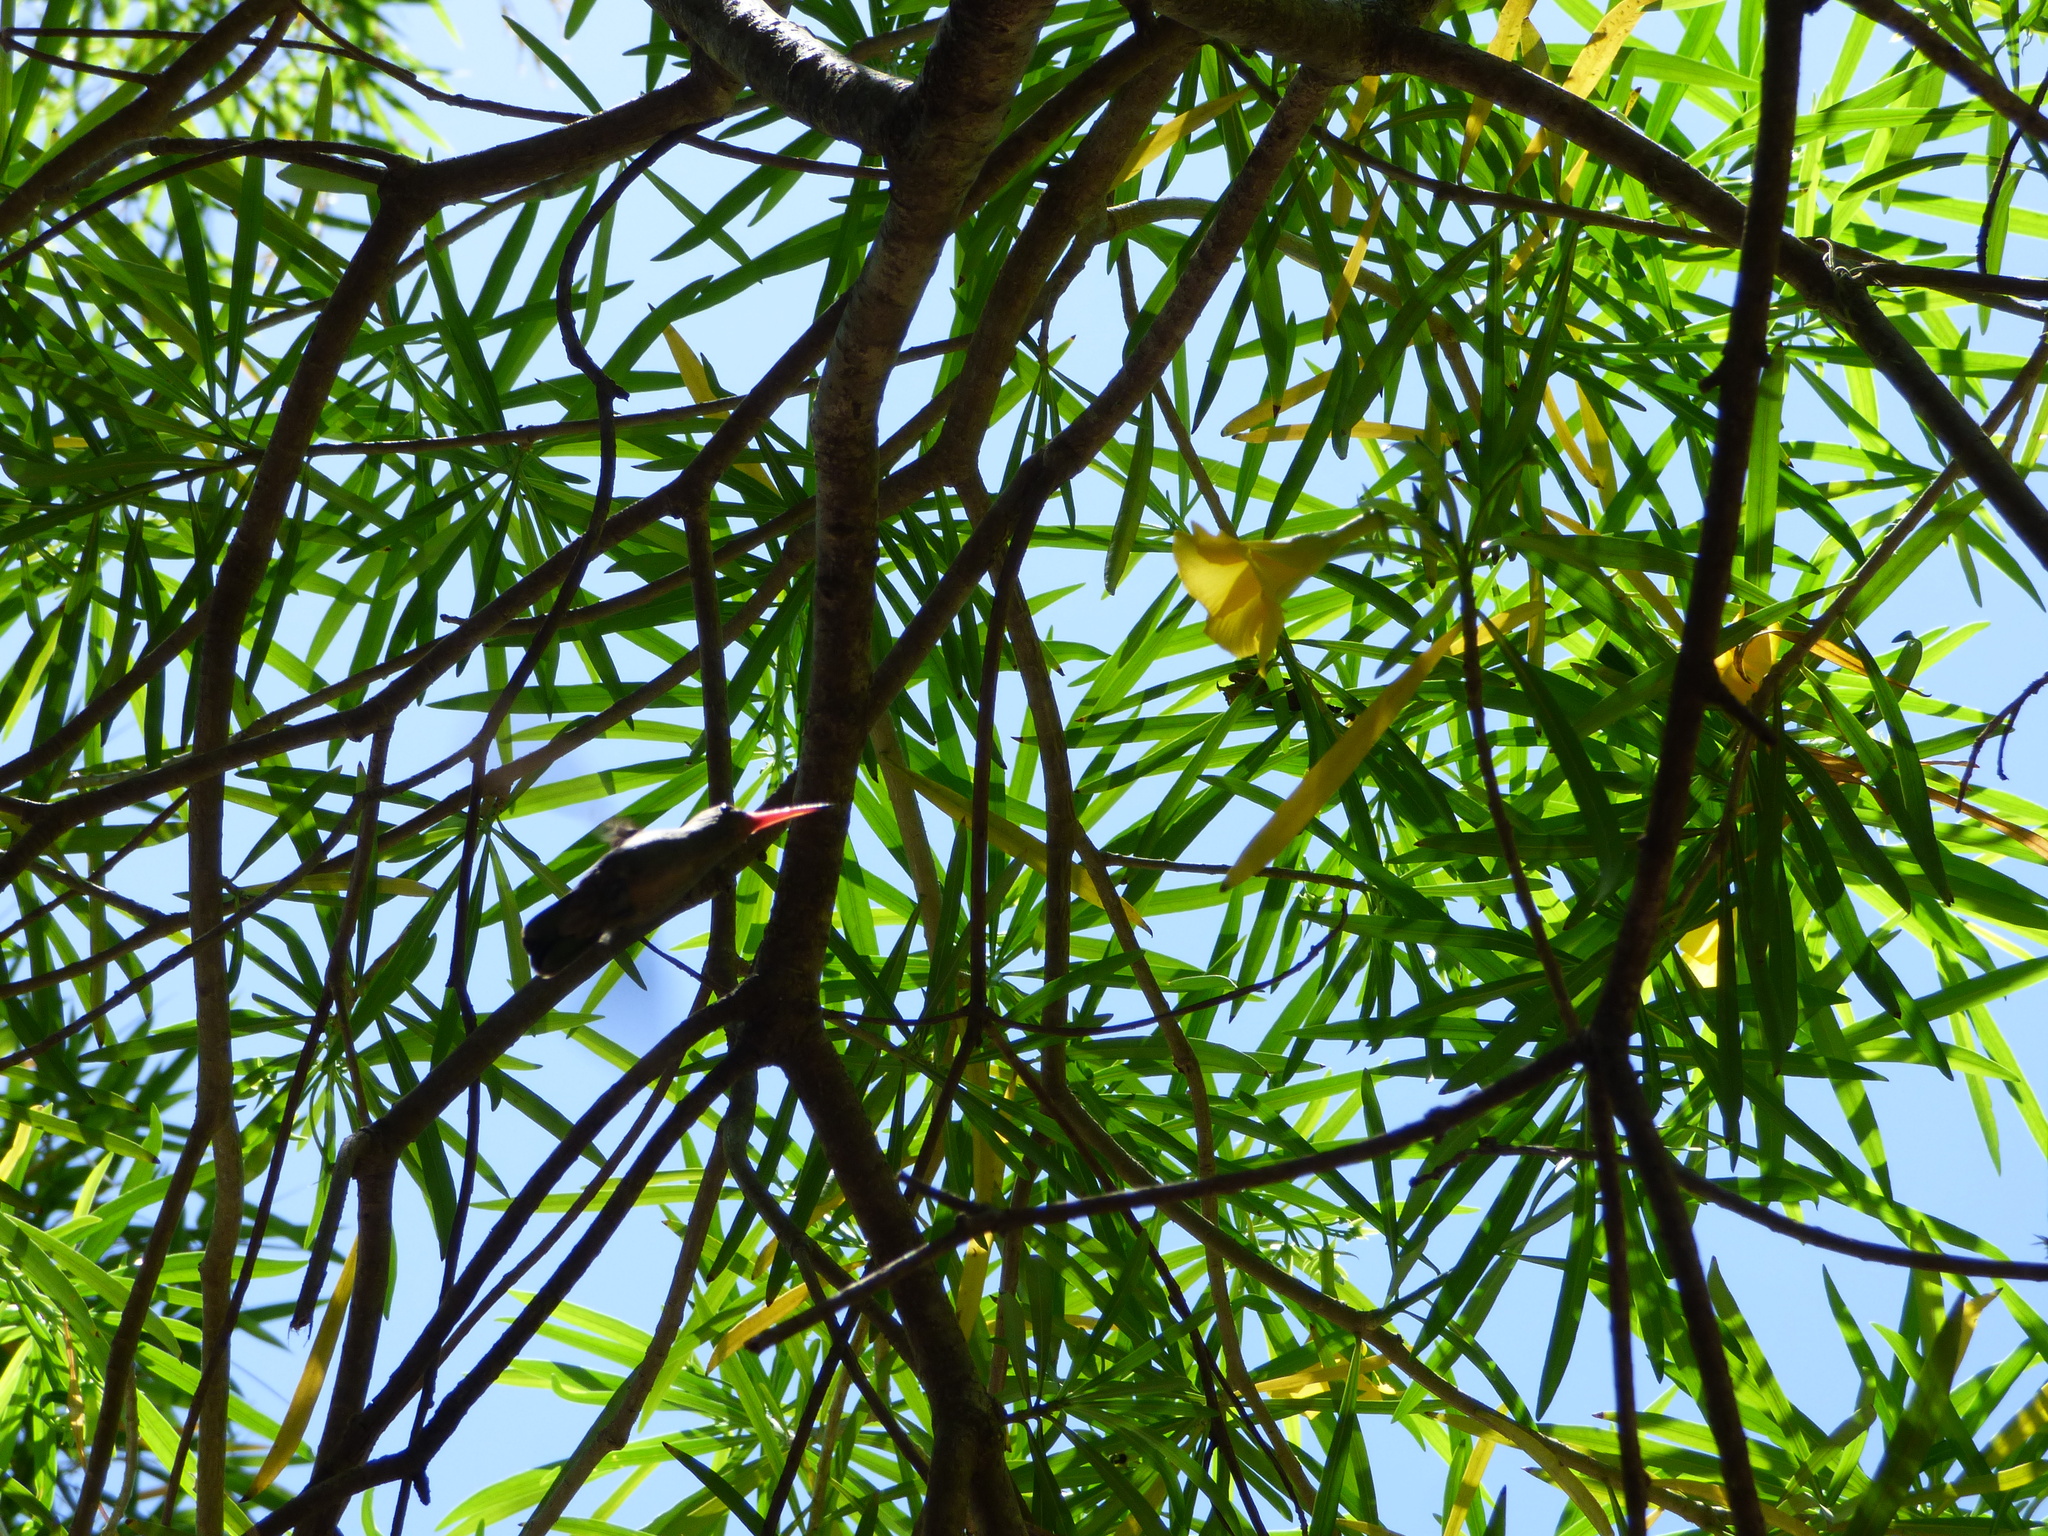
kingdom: Animalia
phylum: Chordata
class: Aves
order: Apodiformes
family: Trochilidae
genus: Hylocharis
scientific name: Hylocharis chrysura
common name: Gilded sapphire
